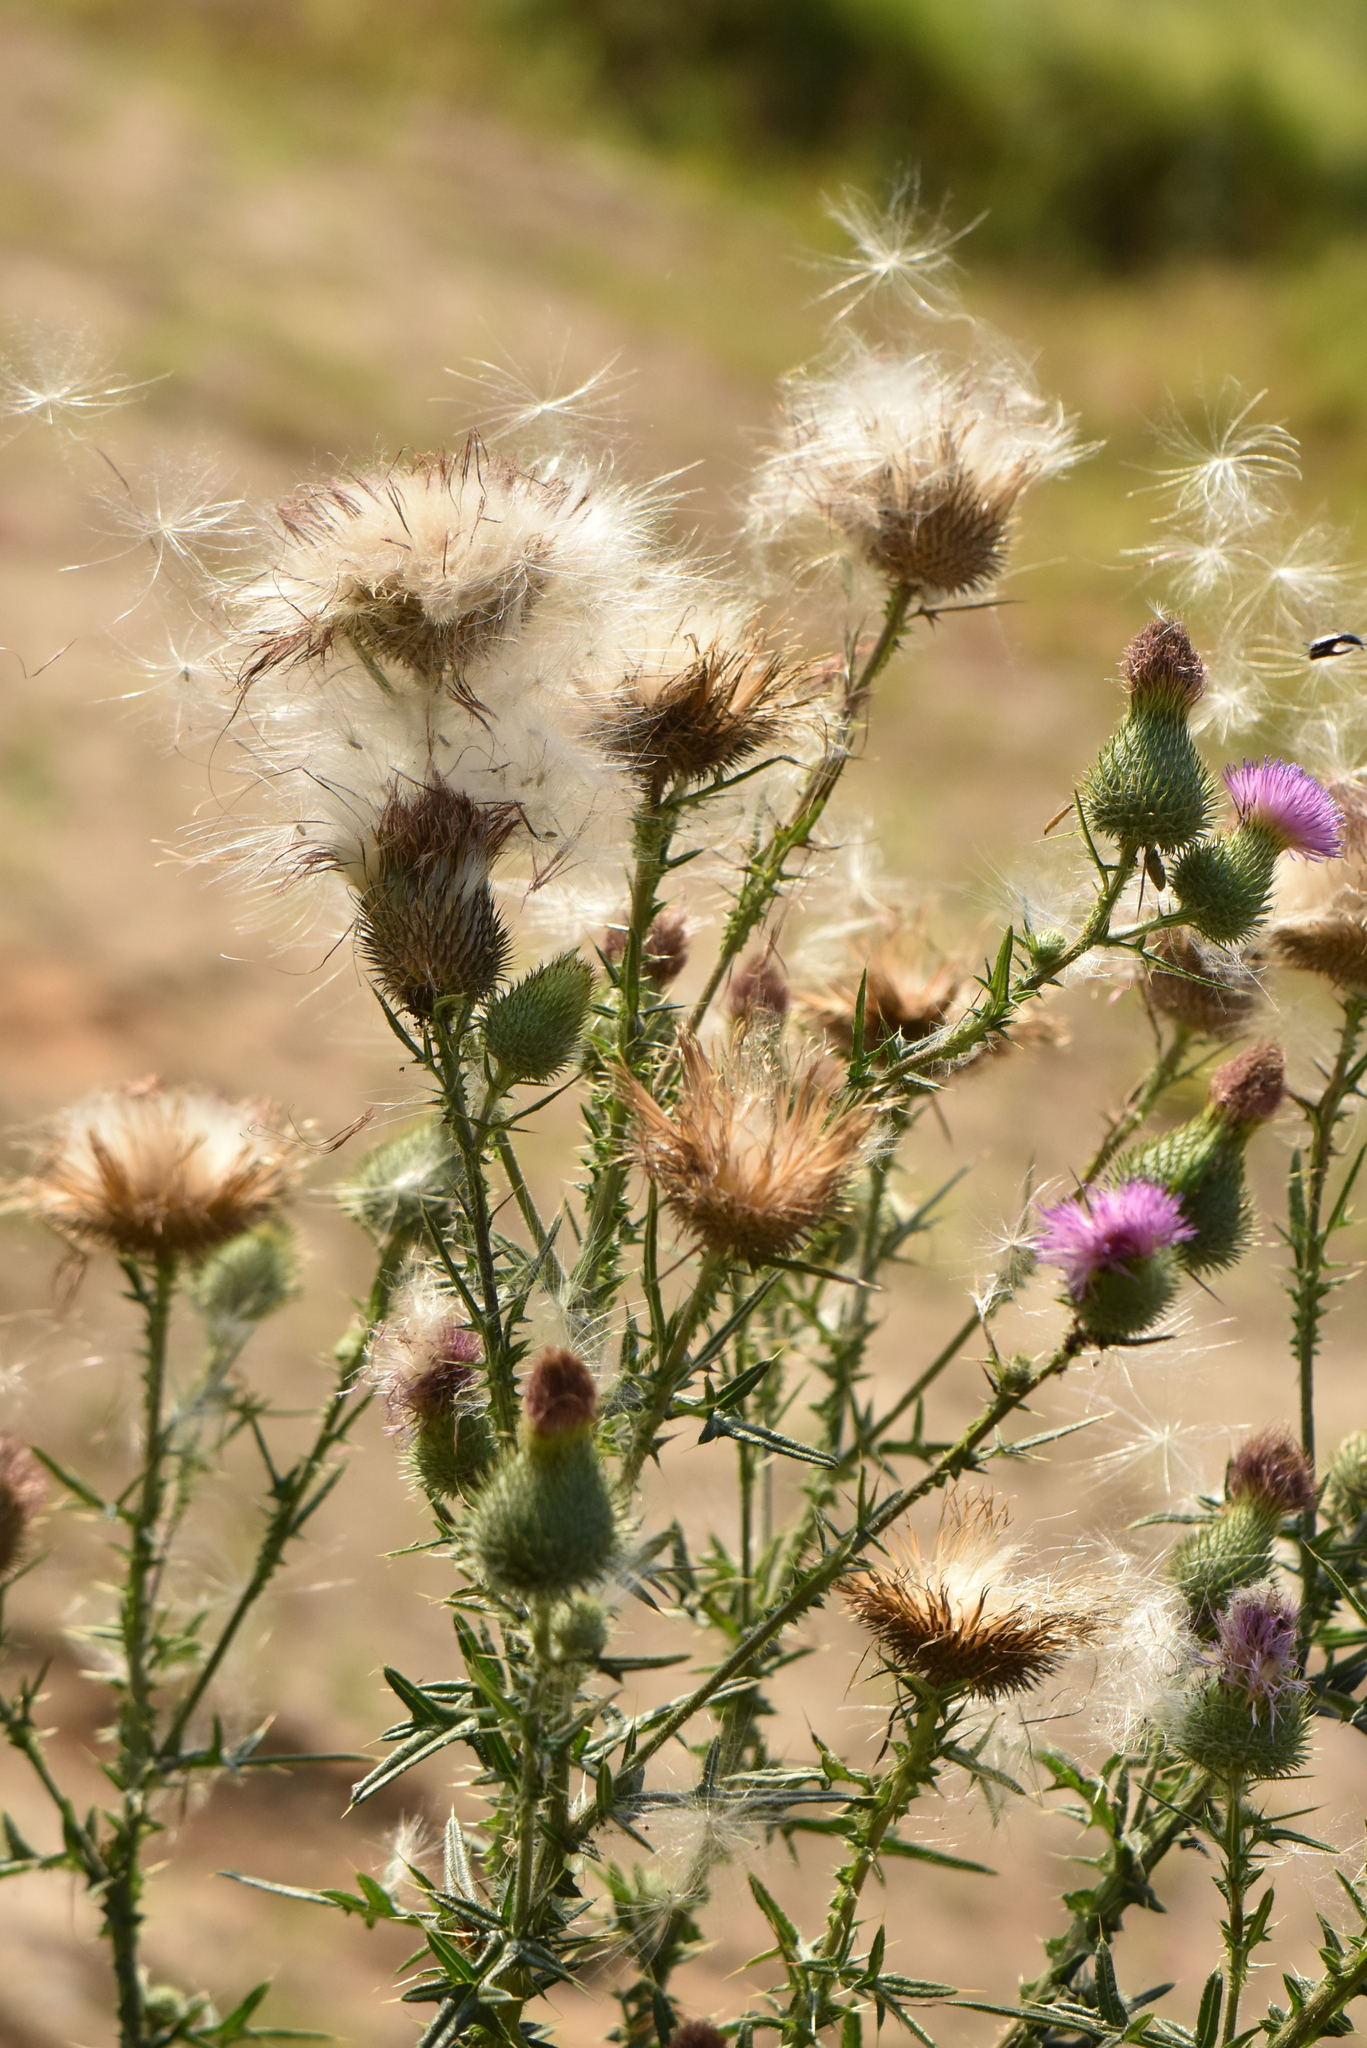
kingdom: Plantae
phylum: Tracheophyta
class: Magnoliopsida
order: Asterales
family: Asteraceae
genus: Cirsium
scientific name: Cirsium vulgare
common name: Bull thistle
